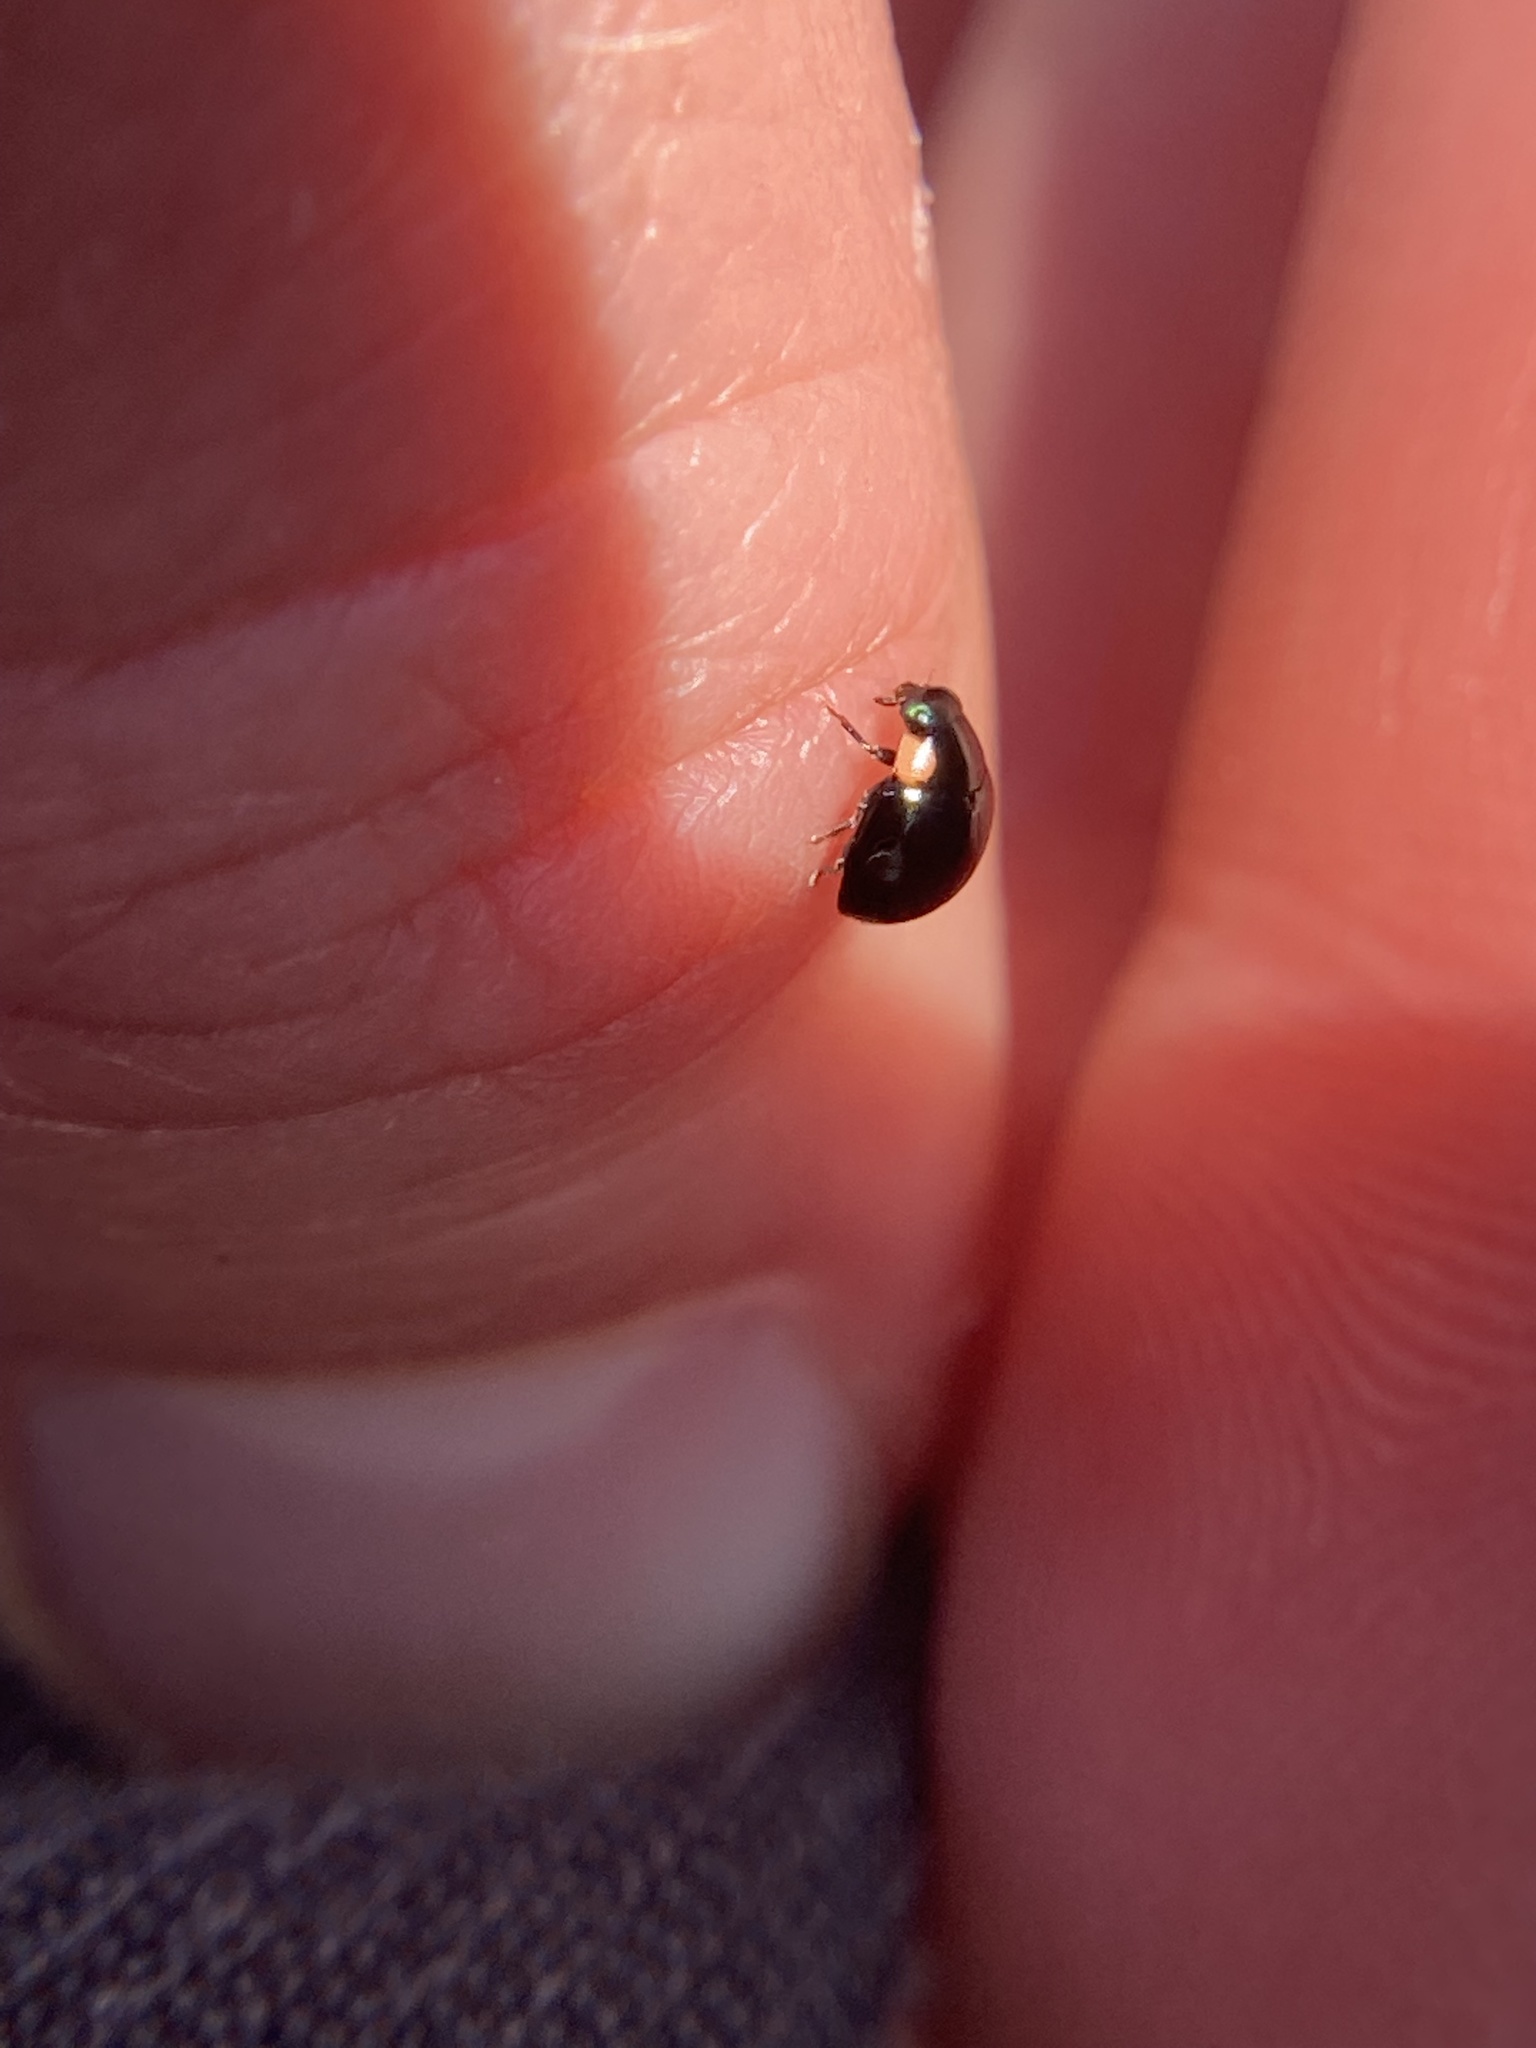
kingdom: Animalia
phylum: Arthropoda
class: Insecta
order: Coleoptera
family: Coccinellidae
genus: Hyperaspis
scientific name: Hyperaspis bigeminata
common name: Bigeminate sigil lady beetle
